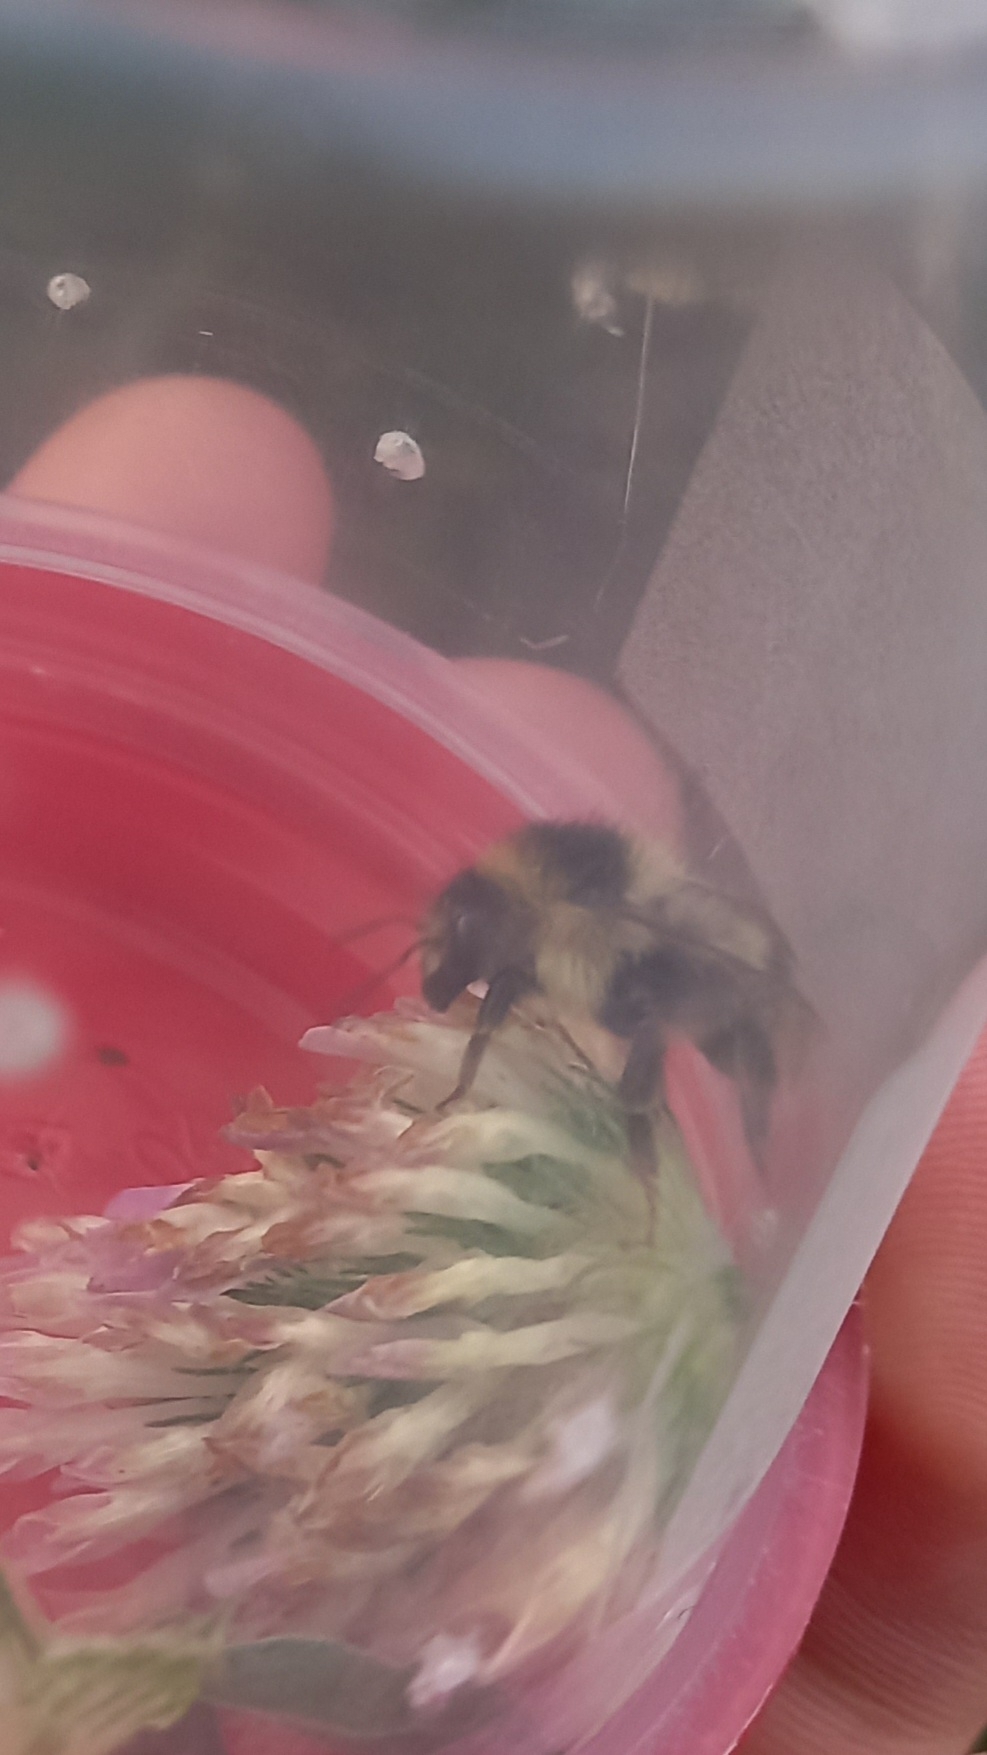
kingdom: Animalia
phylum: Arthropoda
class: Insecta
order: Hymenoptera
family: Apidae
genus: Bombus
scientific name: Bombus sylvarum
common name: Shrill carder bee
